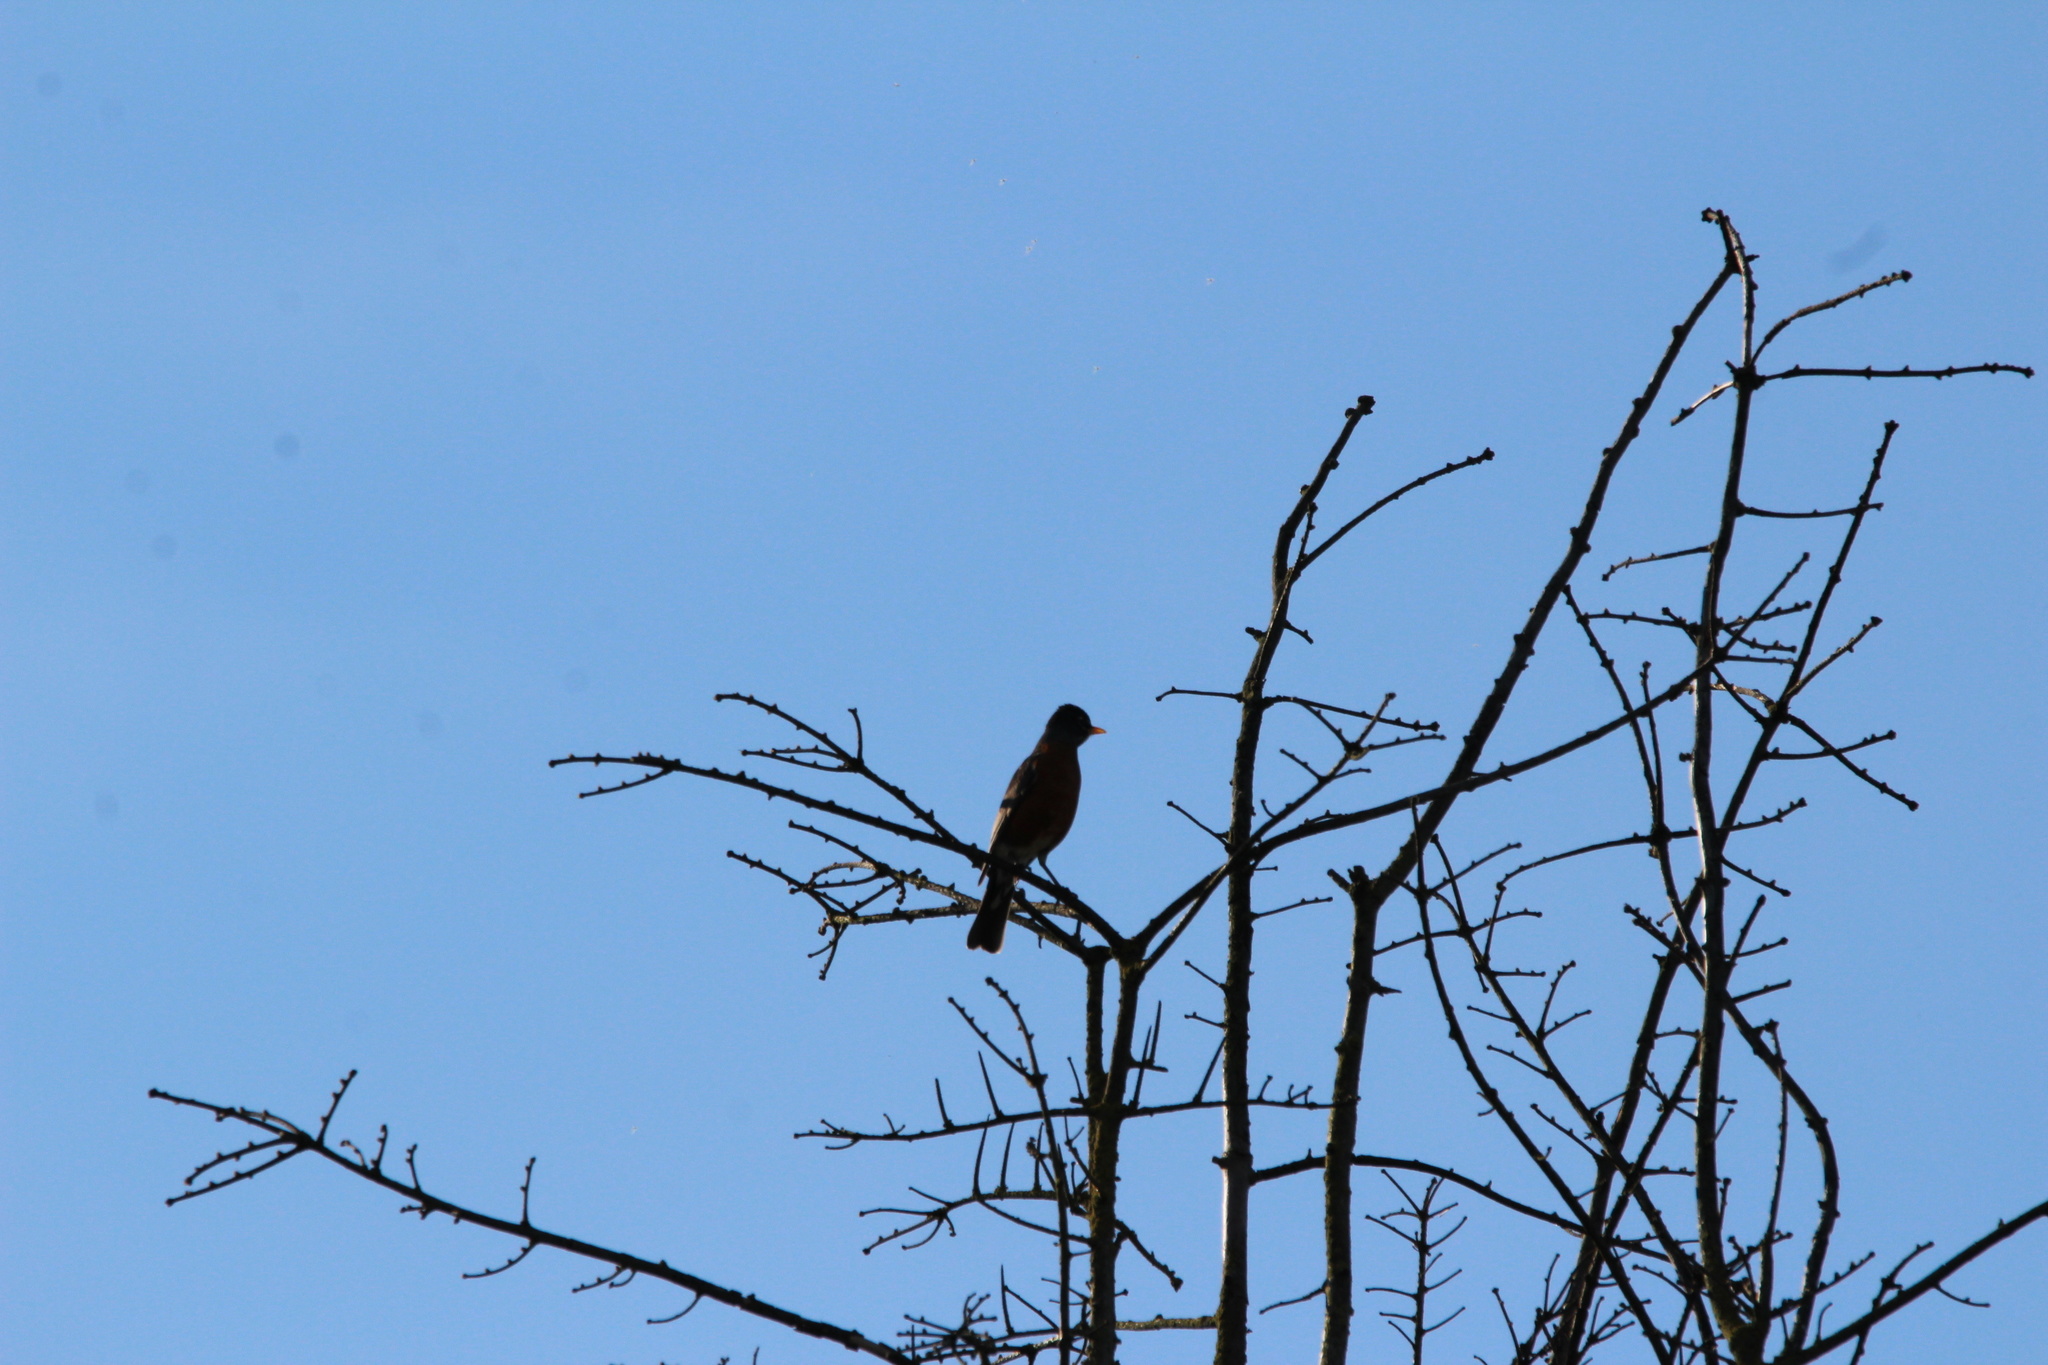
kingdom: Animalia
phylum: Chordata
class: Aves
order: Passeriformes
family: Turdidae
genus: Turdus
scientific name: Turdus migratorius
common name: American robin
